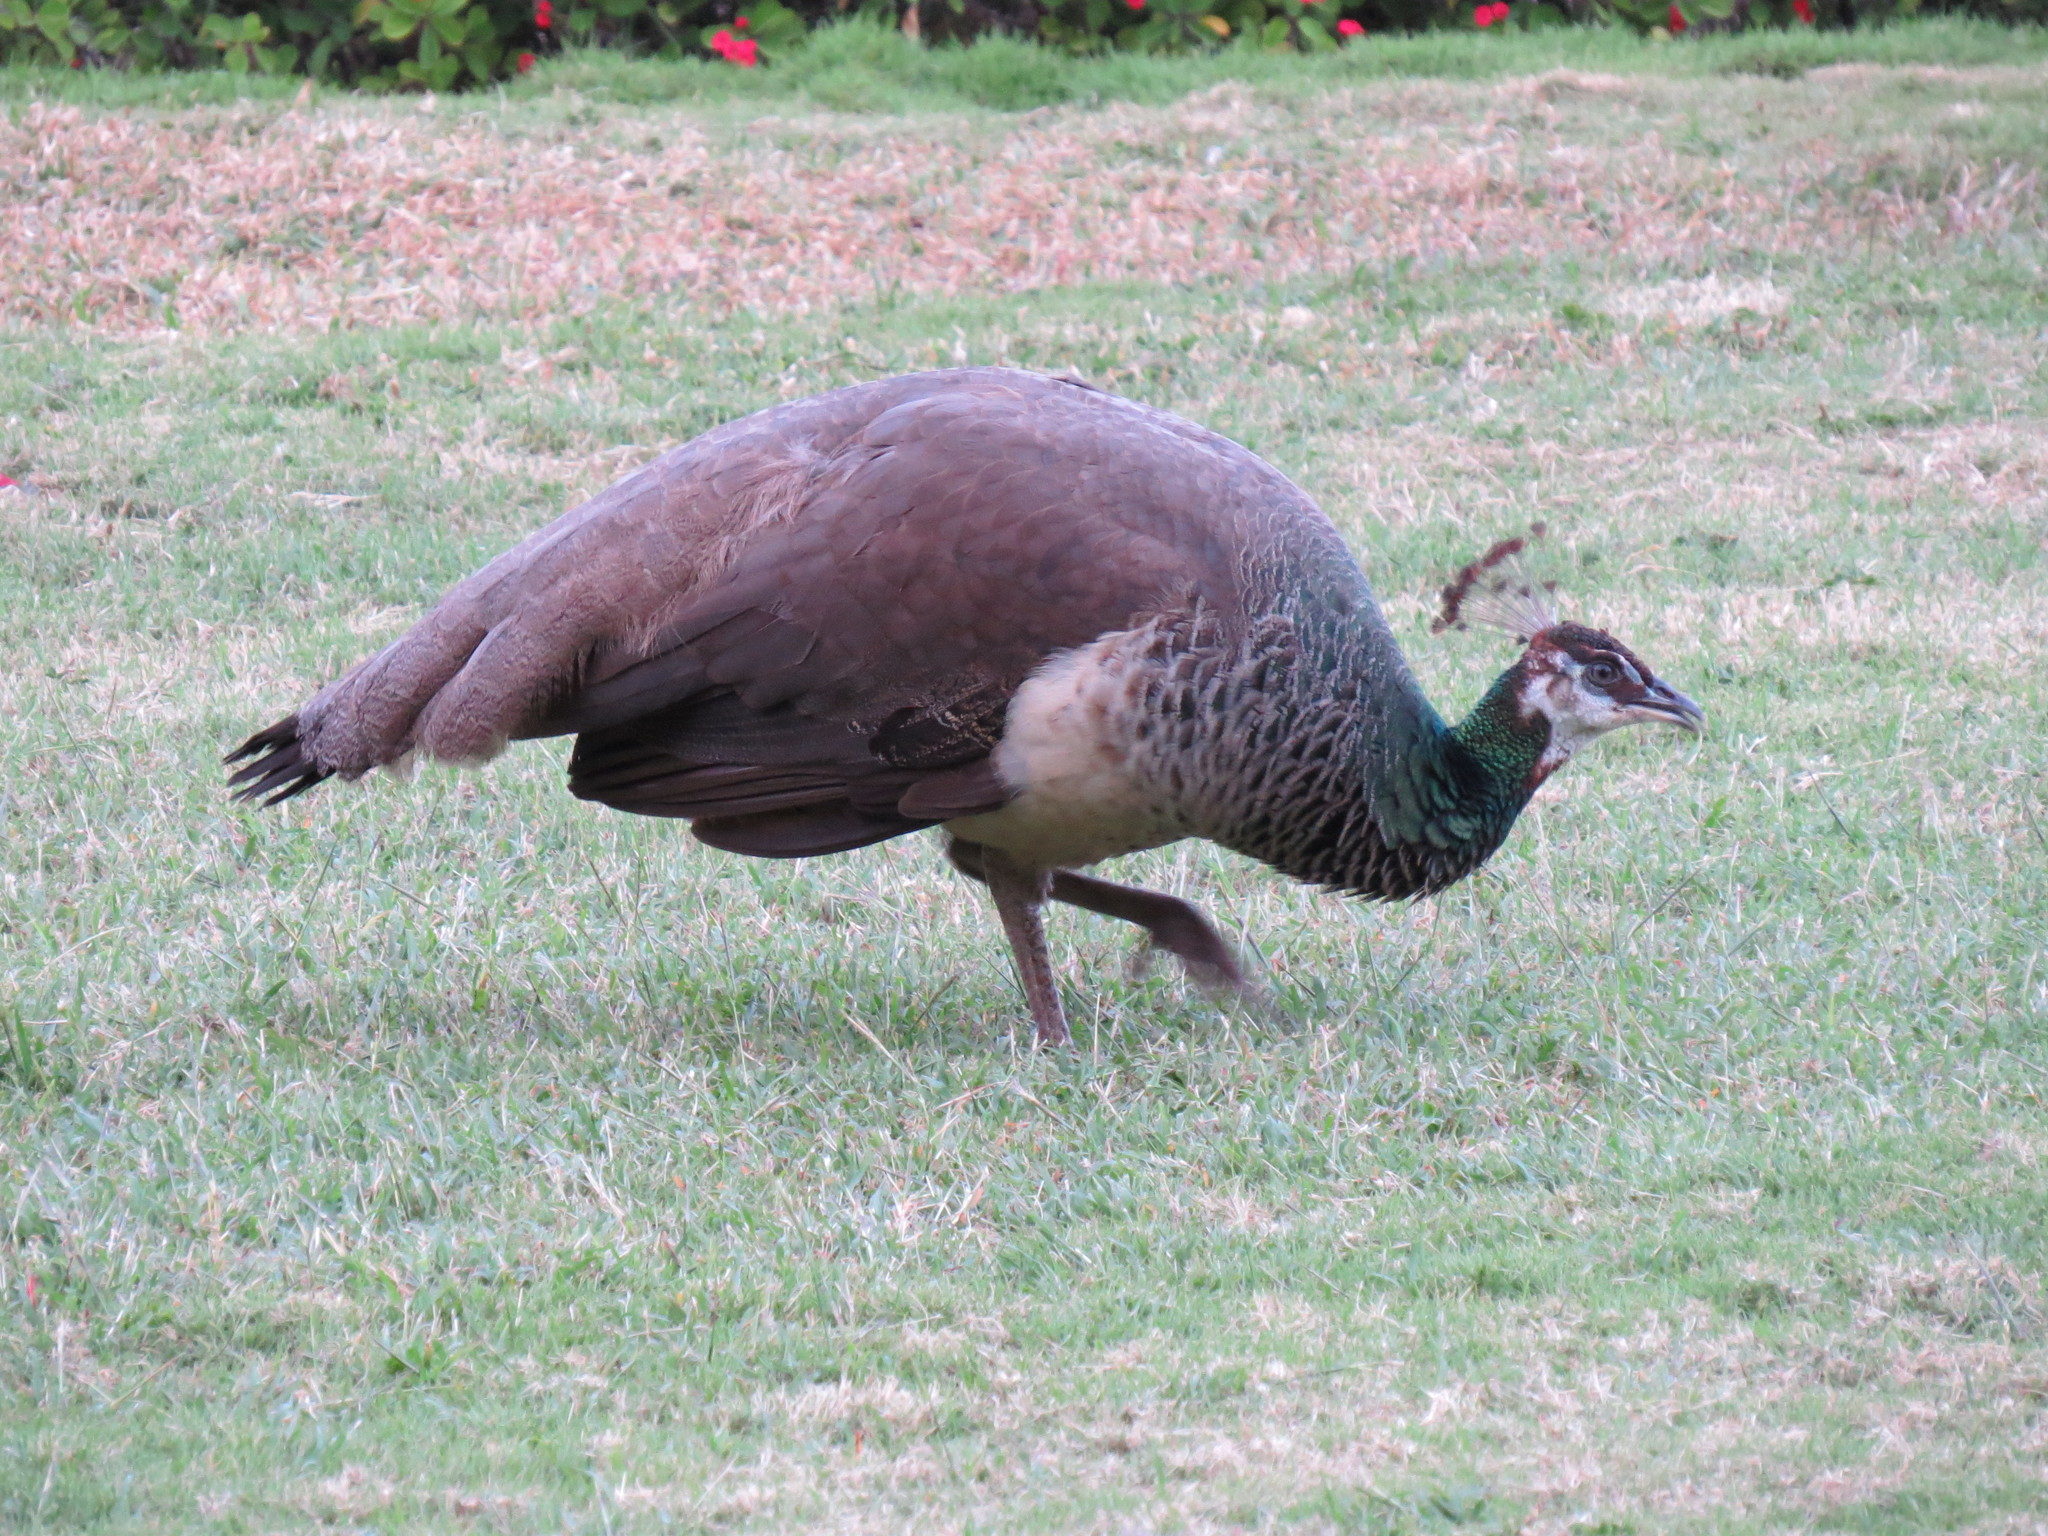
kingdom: Animalia
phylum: Chordata
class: Aves
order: Galliformes
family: Phasianidae
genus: Pavo
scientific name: Pavo cristatus
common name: Indian peafowl
